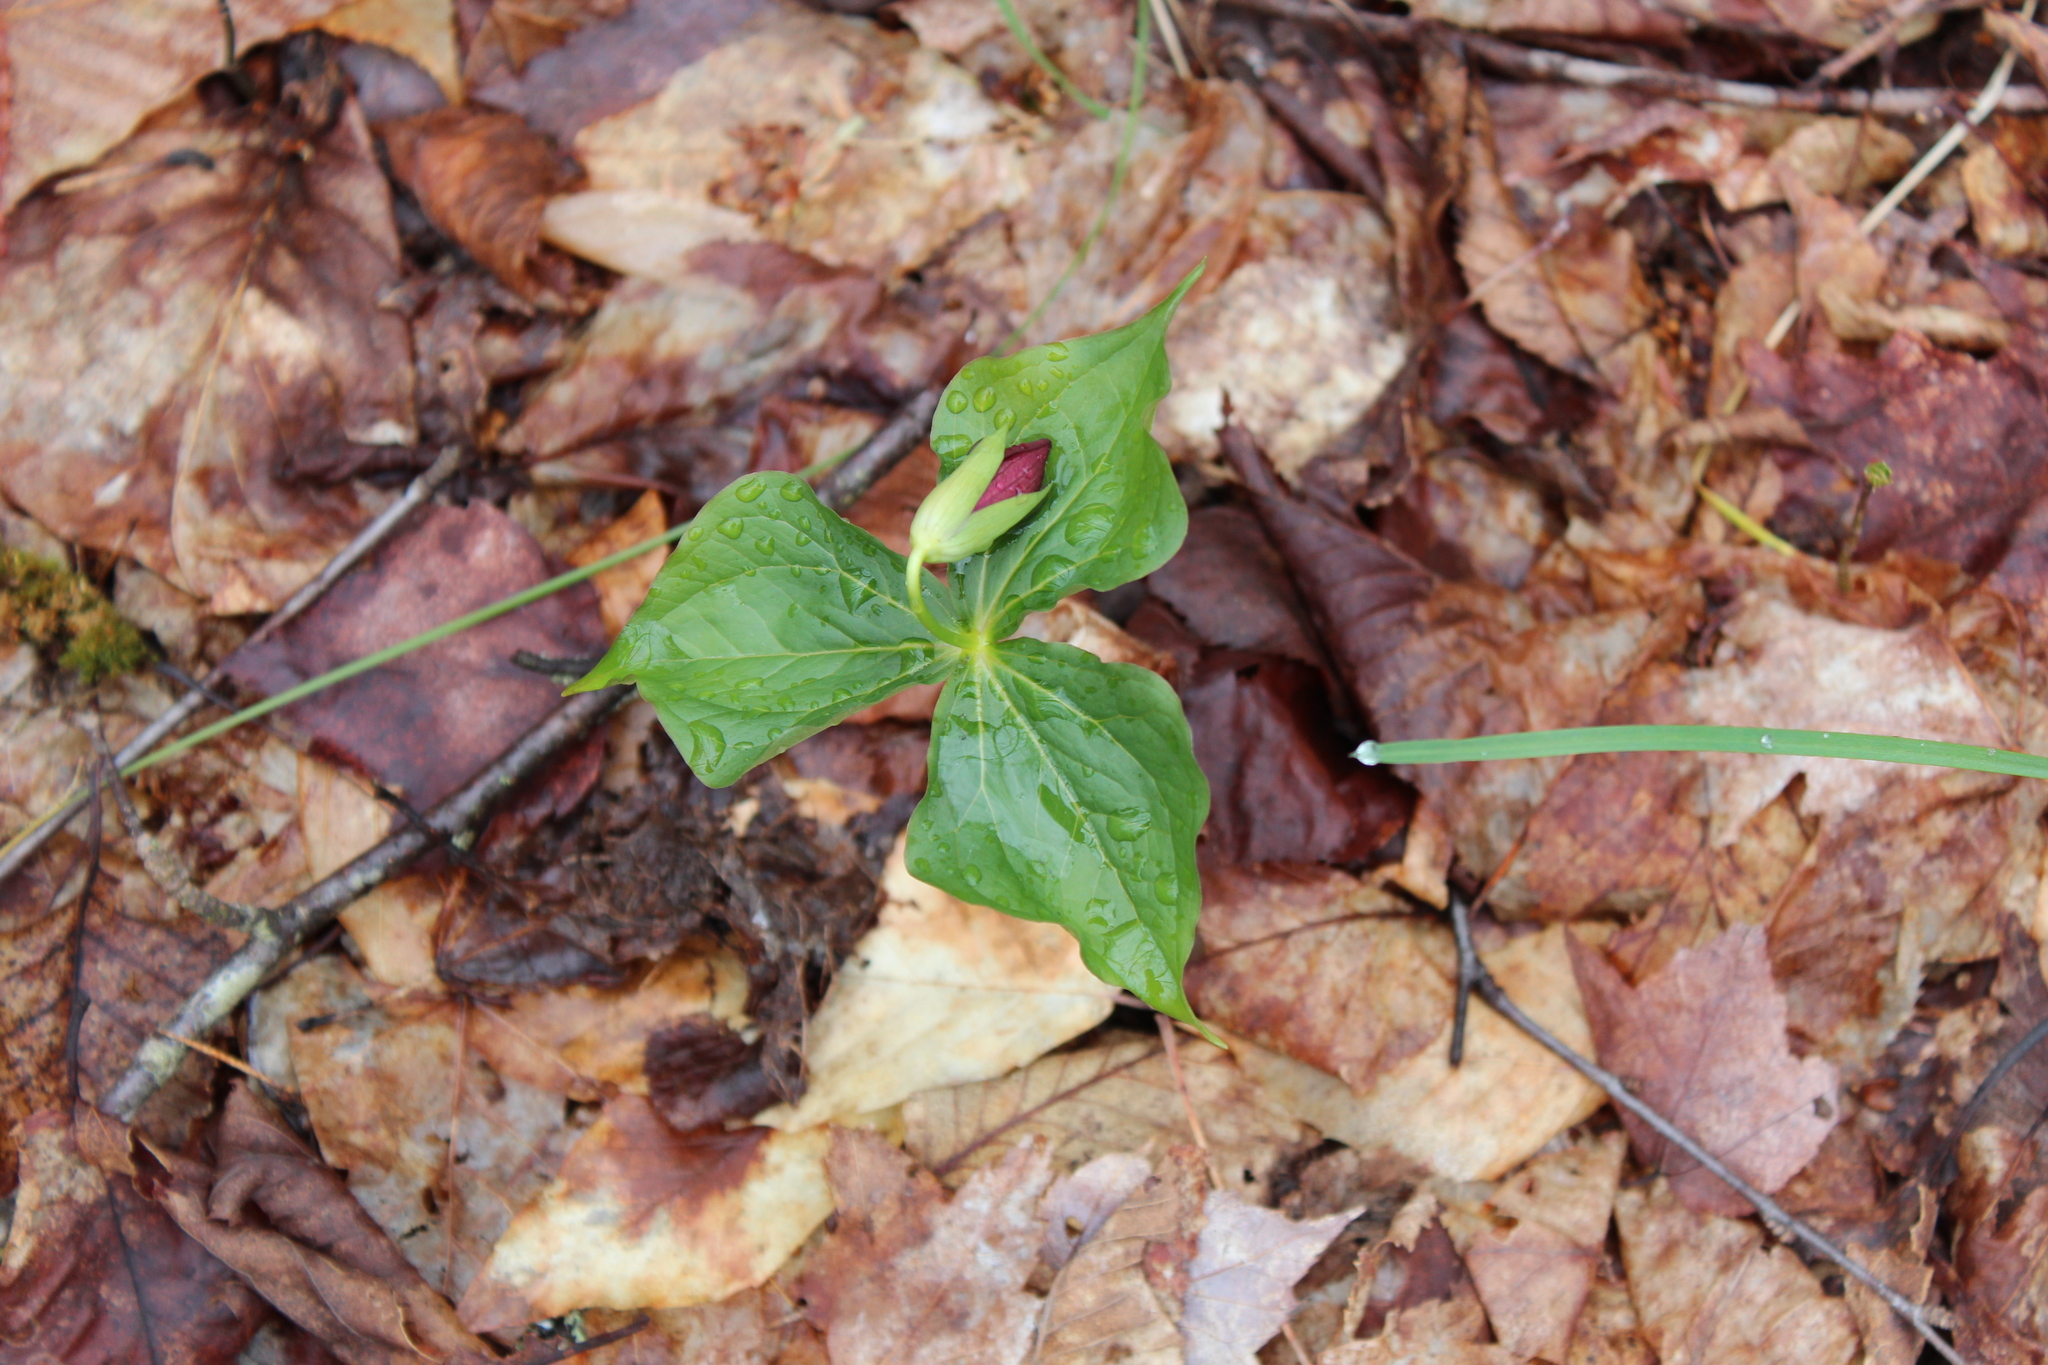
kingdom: Plantae
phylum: Tracheophyta
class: Liliopsida
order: Liliales
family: Melanthiaceae
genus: Trillium
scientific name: Trillium erectum
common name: Purple trillium
